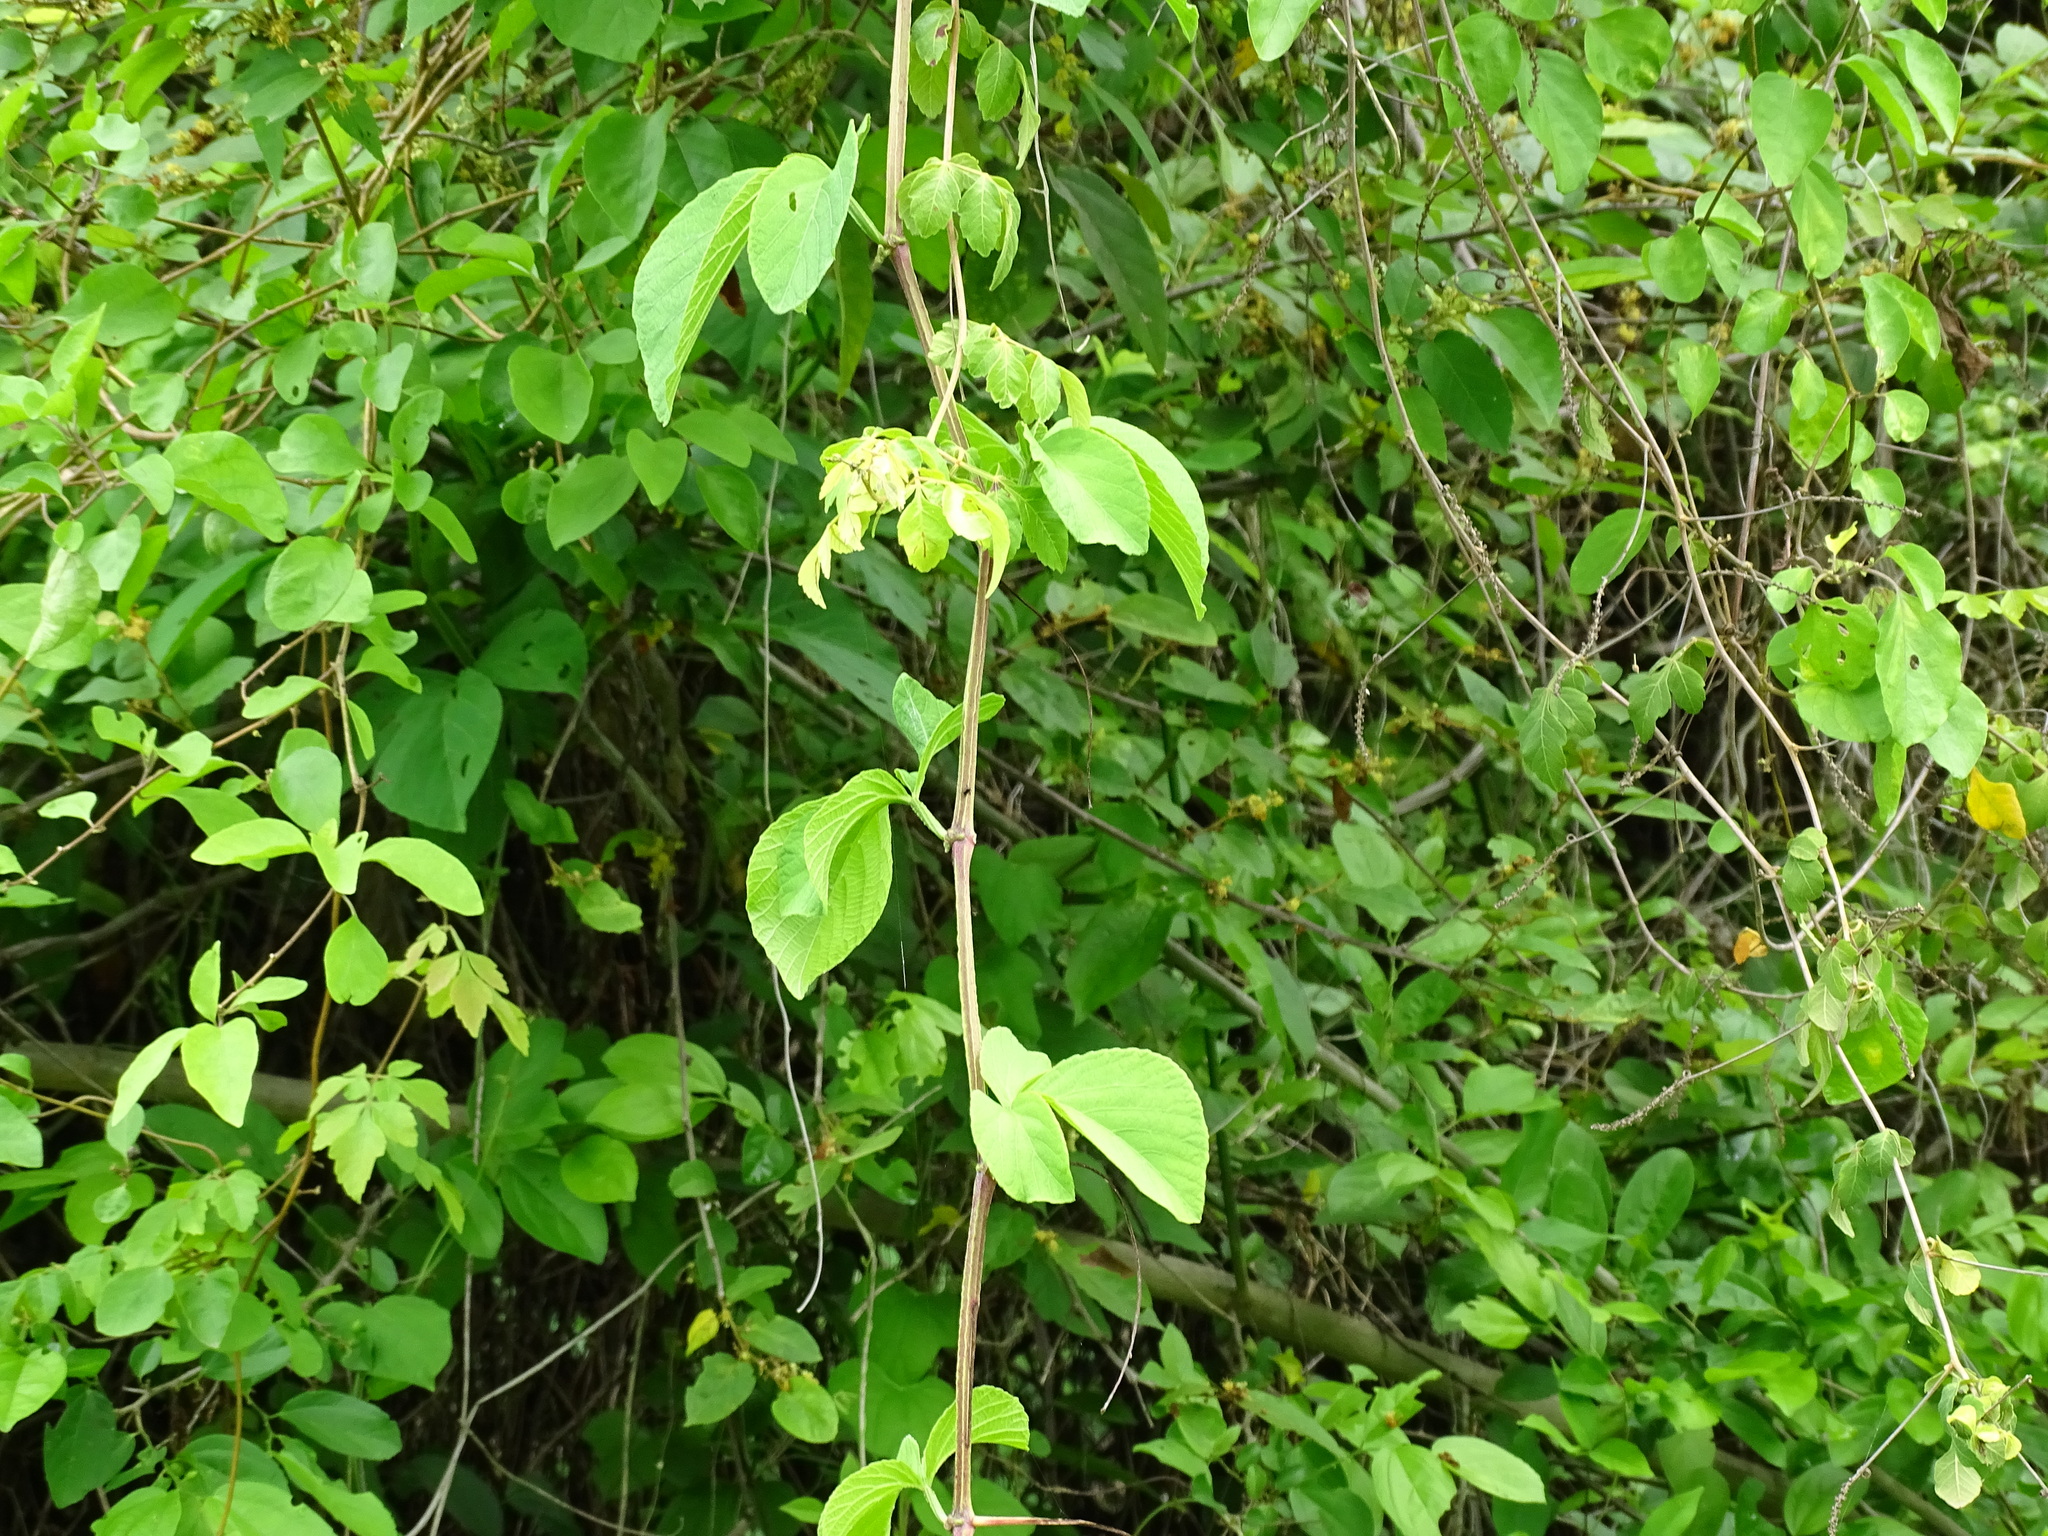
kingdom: Plantae
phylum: Tracheophyta
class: Magnoliopsida
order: Vitales
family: Vitaceae
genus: Cissus
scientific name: Cissus trifoliata
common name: Vine-sorrel
